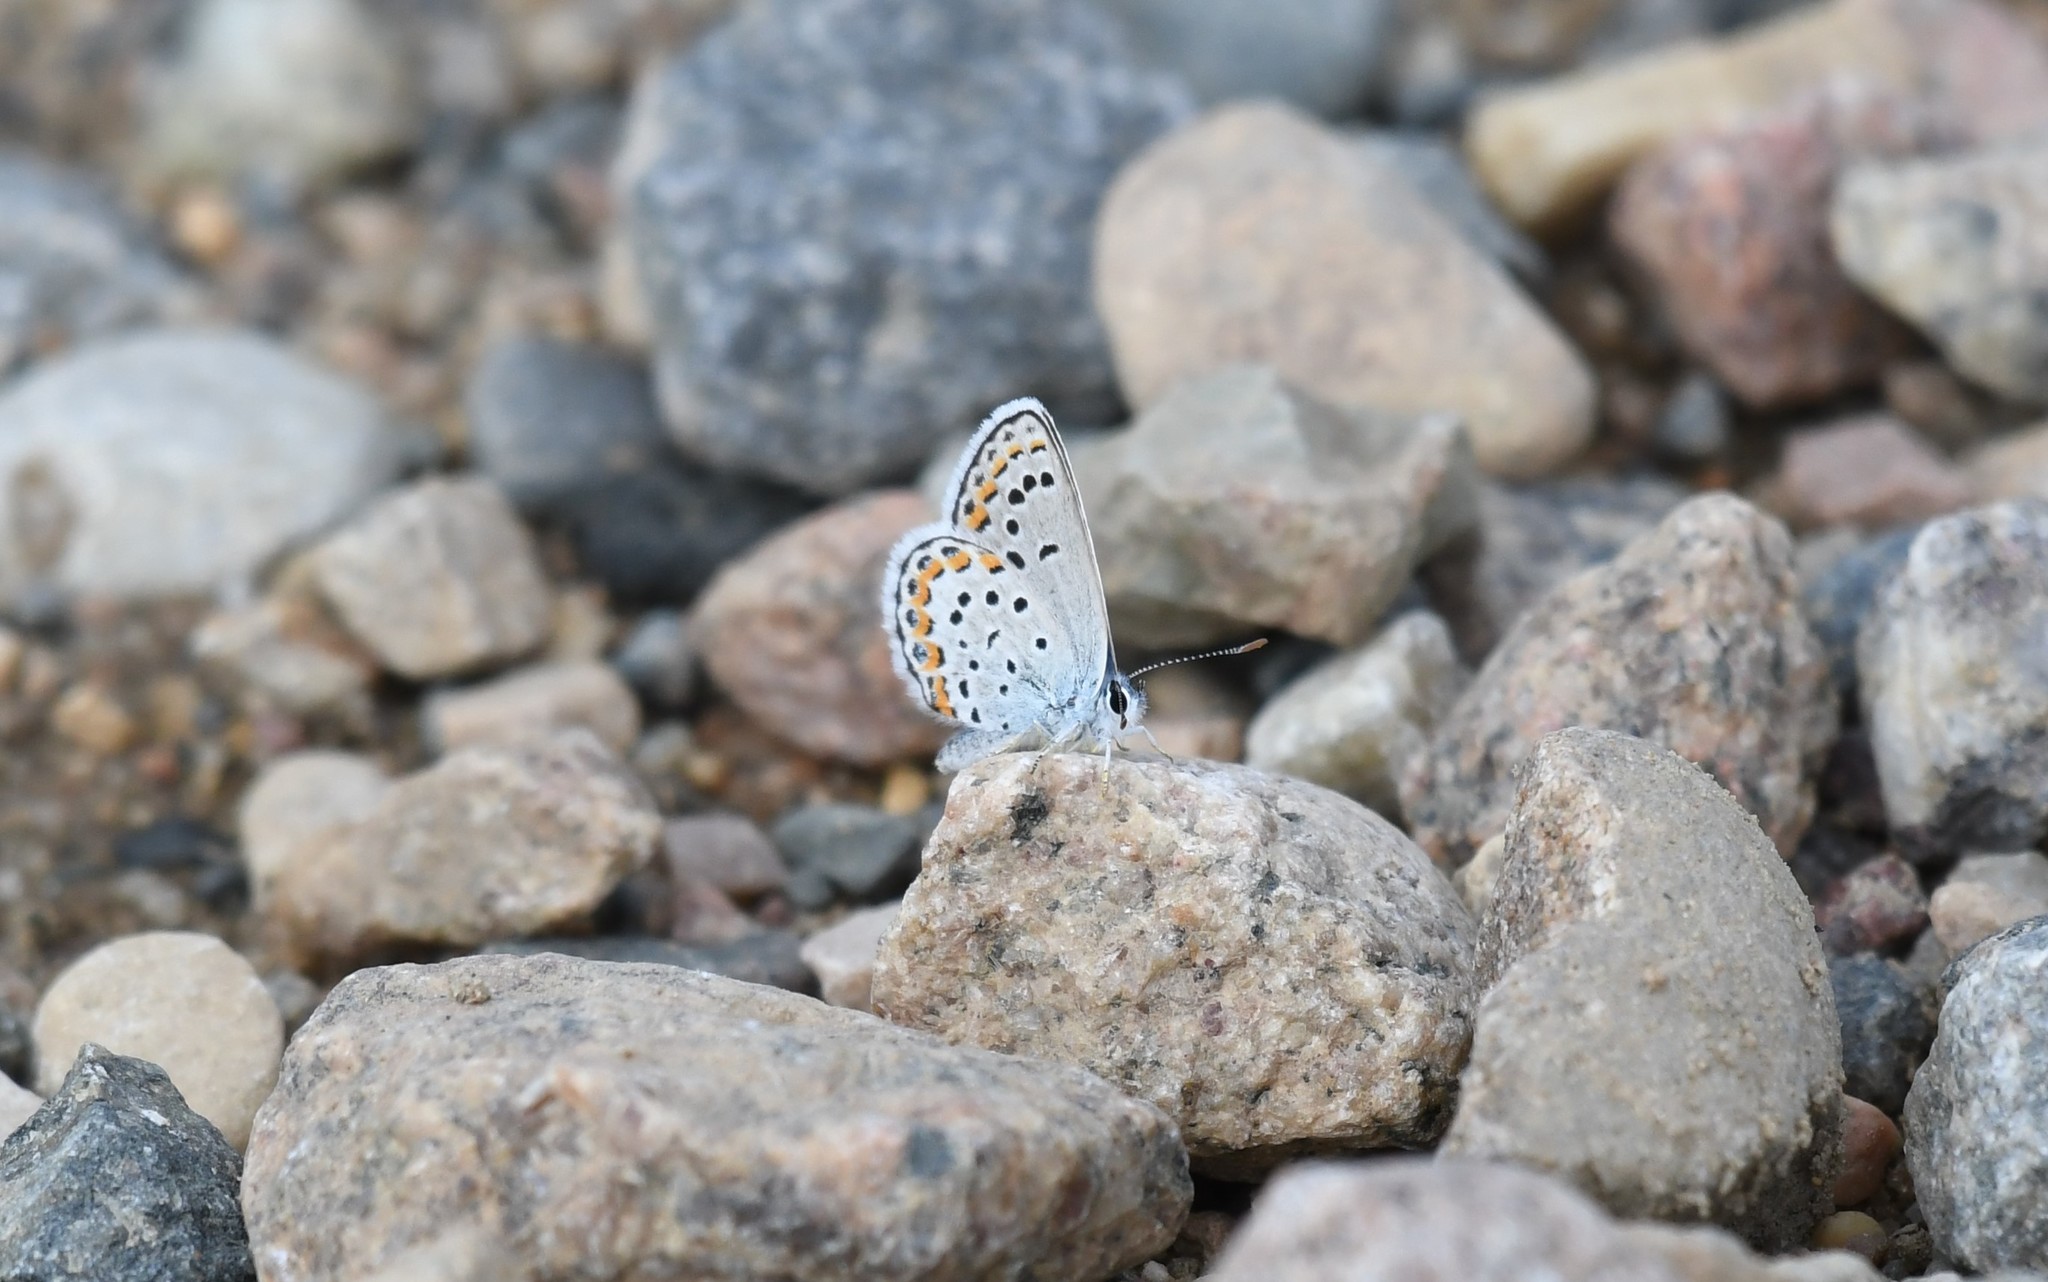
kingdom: Animalia
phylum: Arthropoda
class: Insecta
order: Lepidoptera
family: Lycaenidae
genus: Lycaeides
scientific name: Lycaeides melissa
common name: Melissa blue
